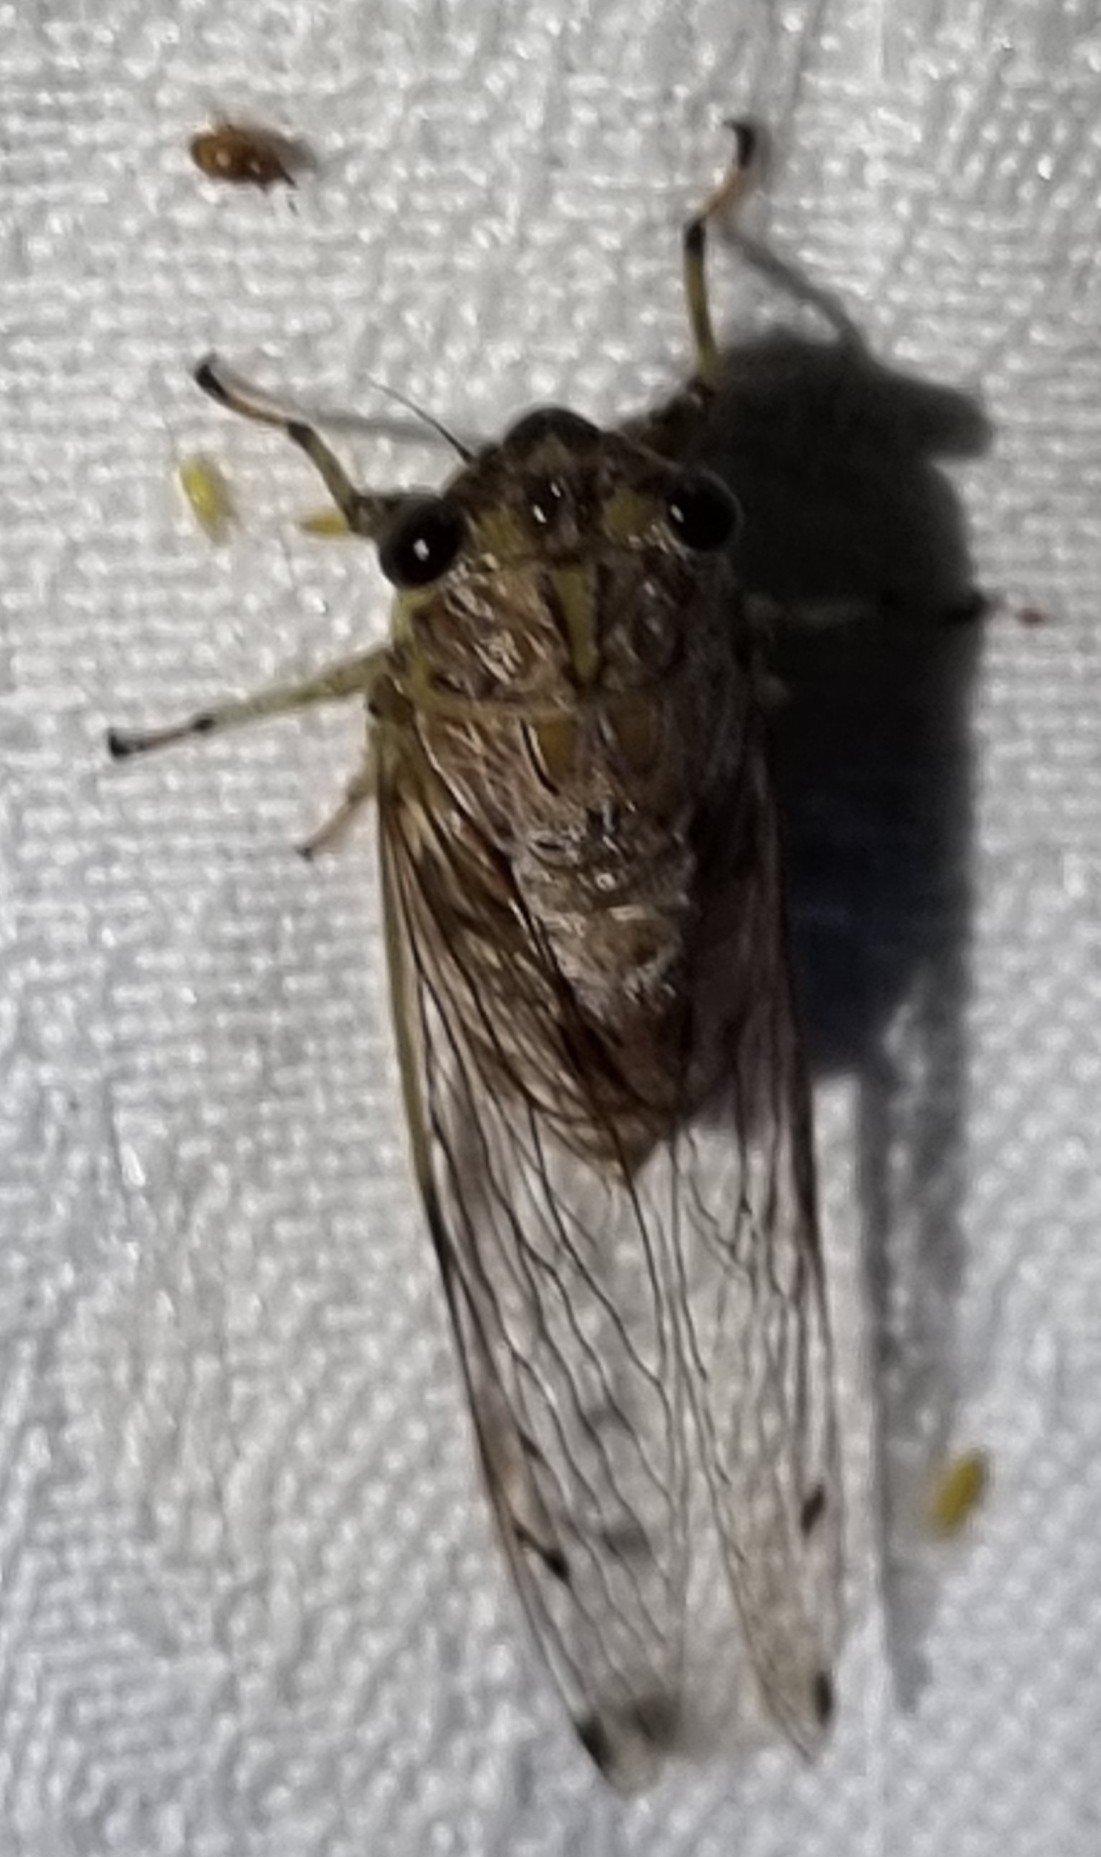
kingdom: Animalia
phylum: Arthropoda
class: Insecta
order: Hemiptera
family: Cicadidae
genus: Tamasa
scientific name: Tamasa tristigma
